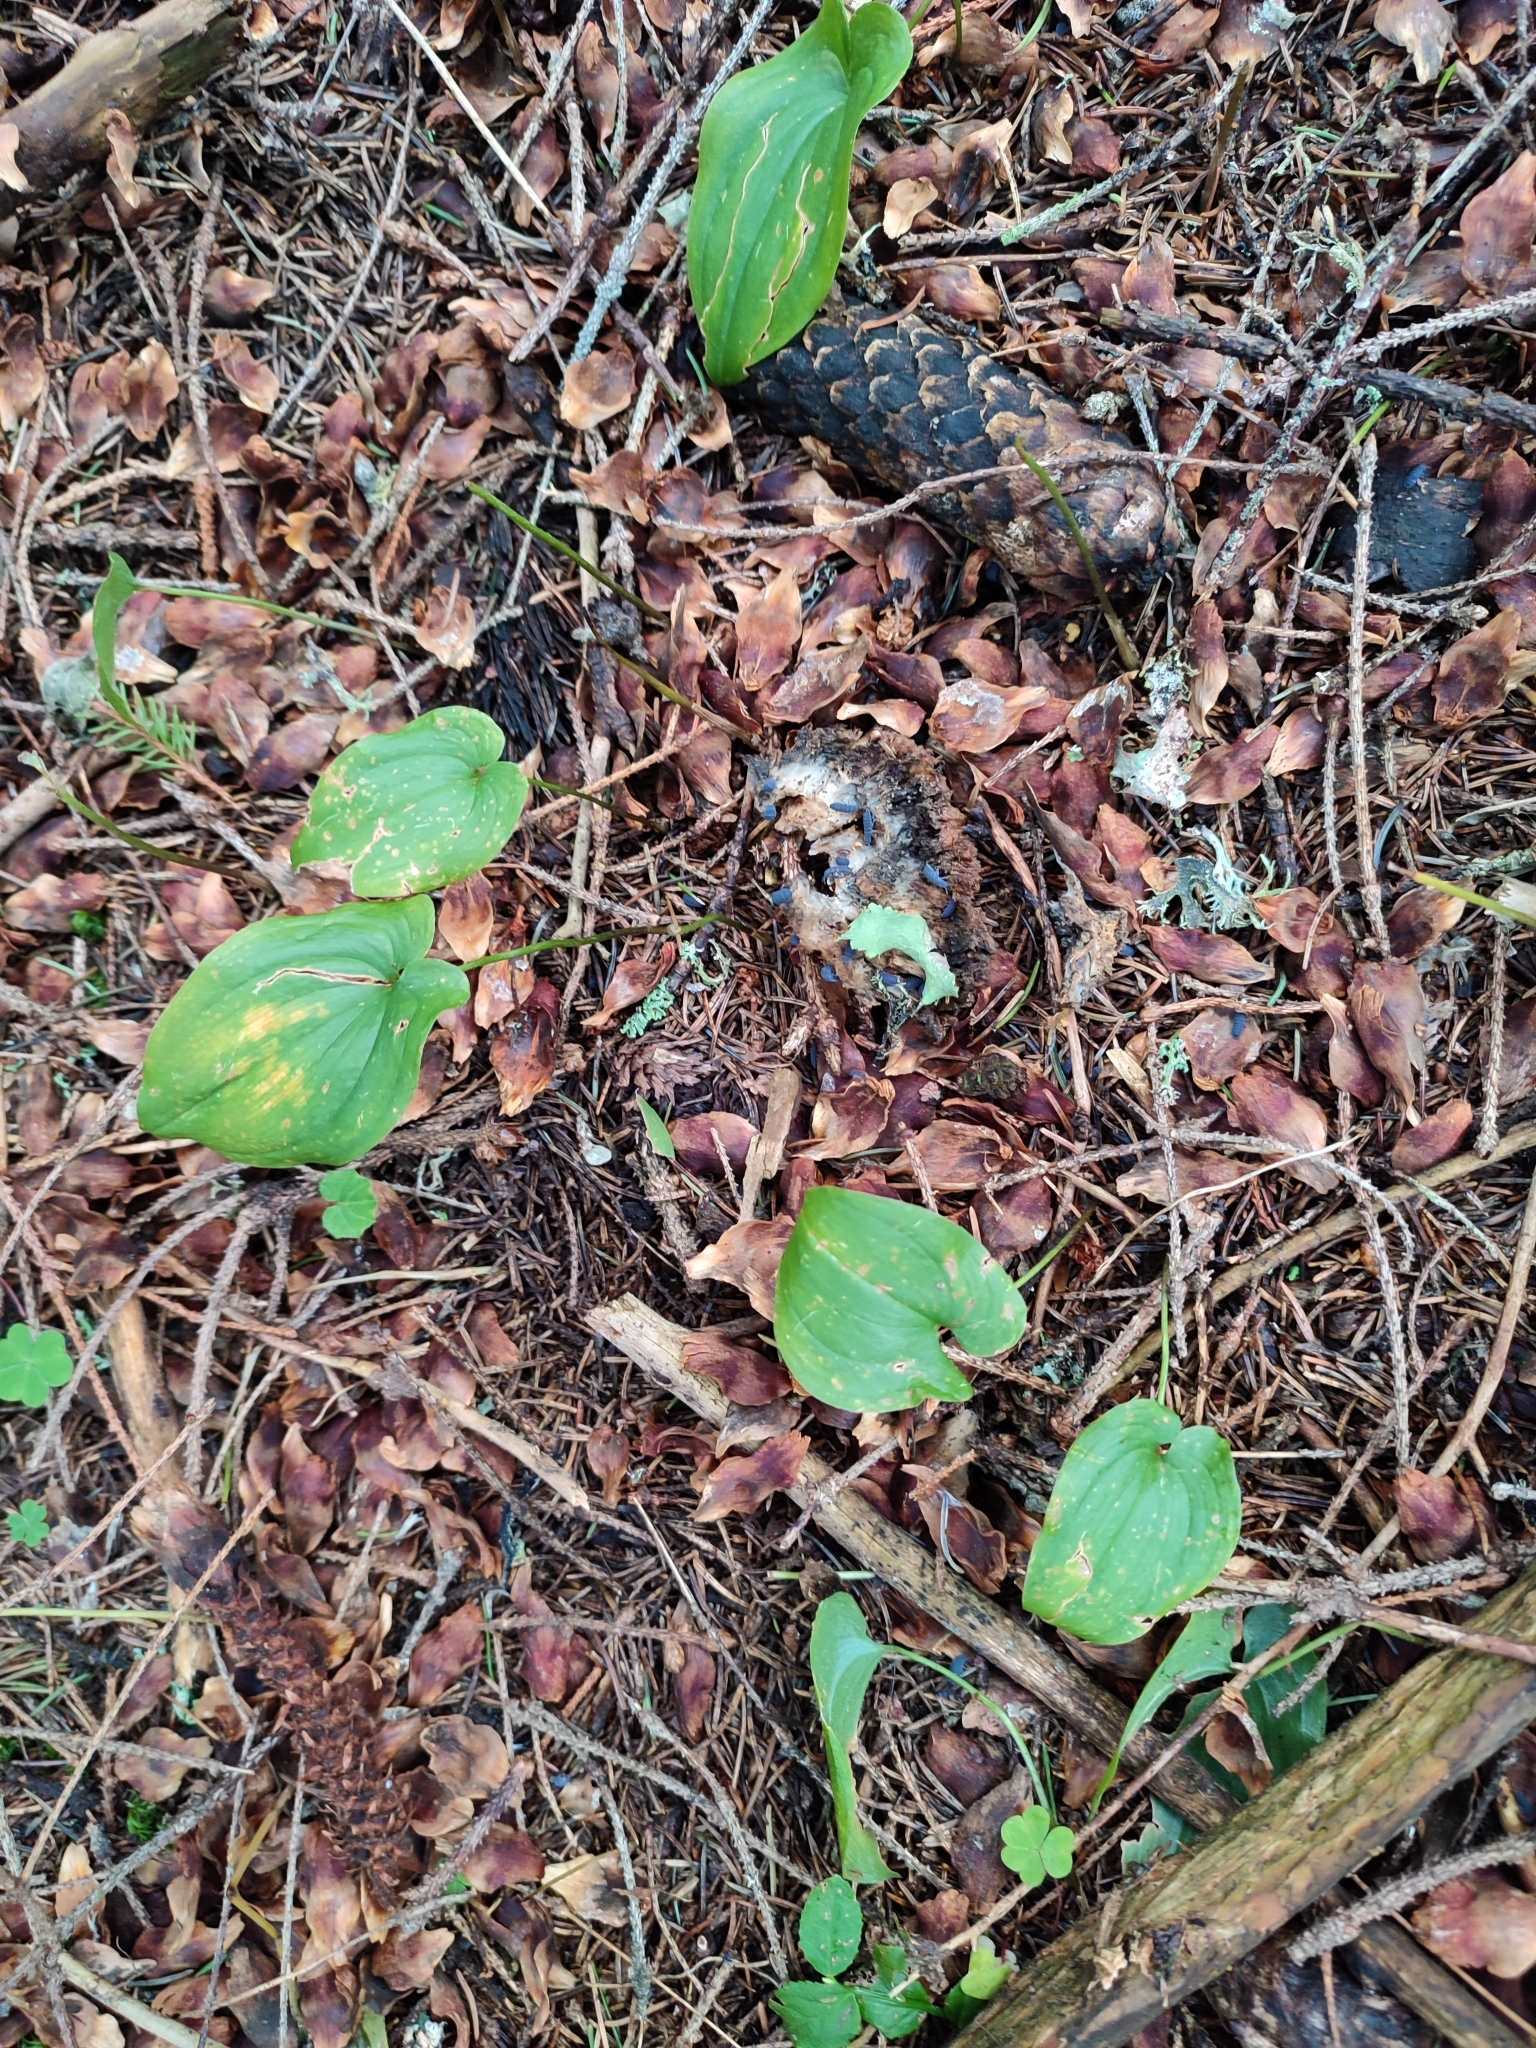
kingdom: Plantae
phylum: Tracheophyta
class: Liliopsida
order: Asparagales
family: Asparagaceae
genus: Maianthemum
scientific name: Maianthemum bifolium
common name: May lily
